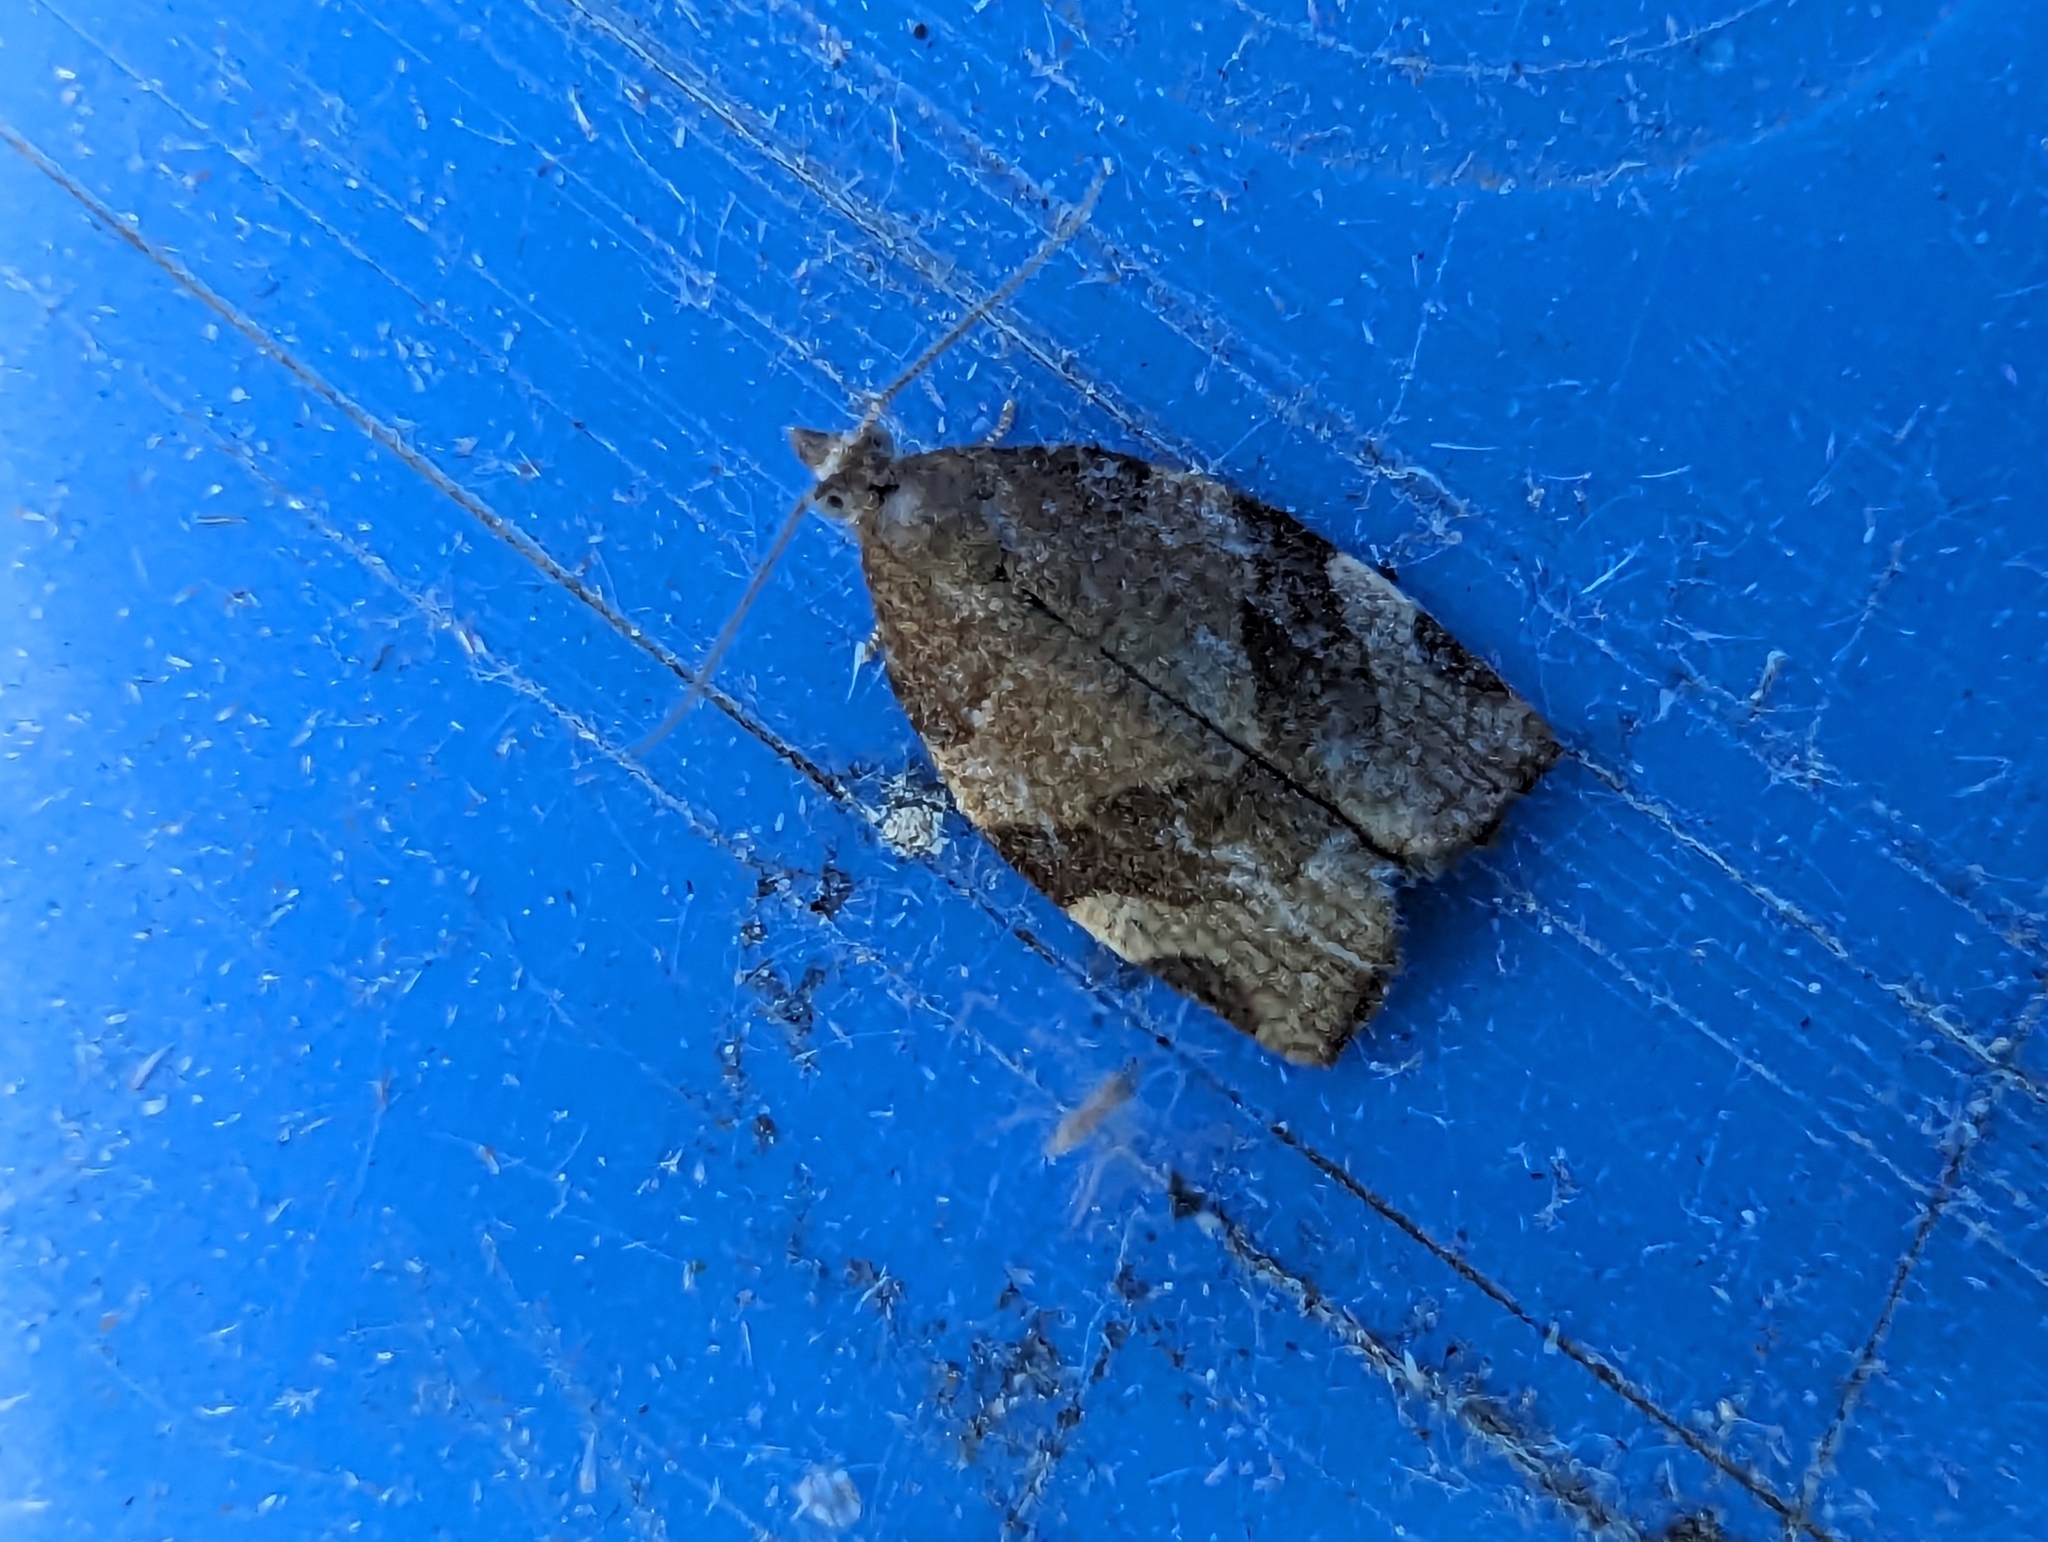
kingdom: Animalia
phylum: Arthropoda
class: Insecta
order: Lepidoptera
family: Tortricidae
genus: Pandemis
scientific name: Pandemis cerasana
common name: Barred fruit-tree tortrix
